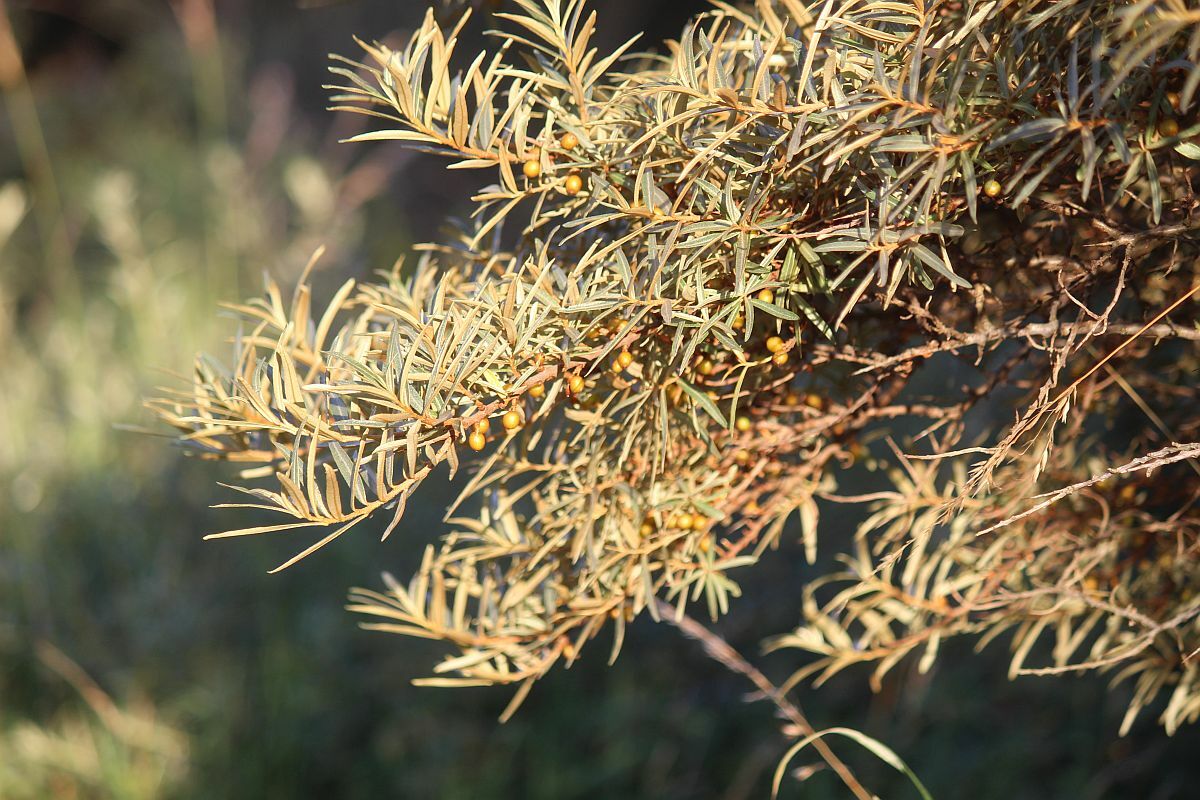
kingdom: Plantae
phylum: Tracheophyta
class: Magnoliopsida
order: Rosales
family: Elaeagnaceae
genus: Hippophae
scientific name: Hippophae rhamnoides
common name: Sea-buckthorn
